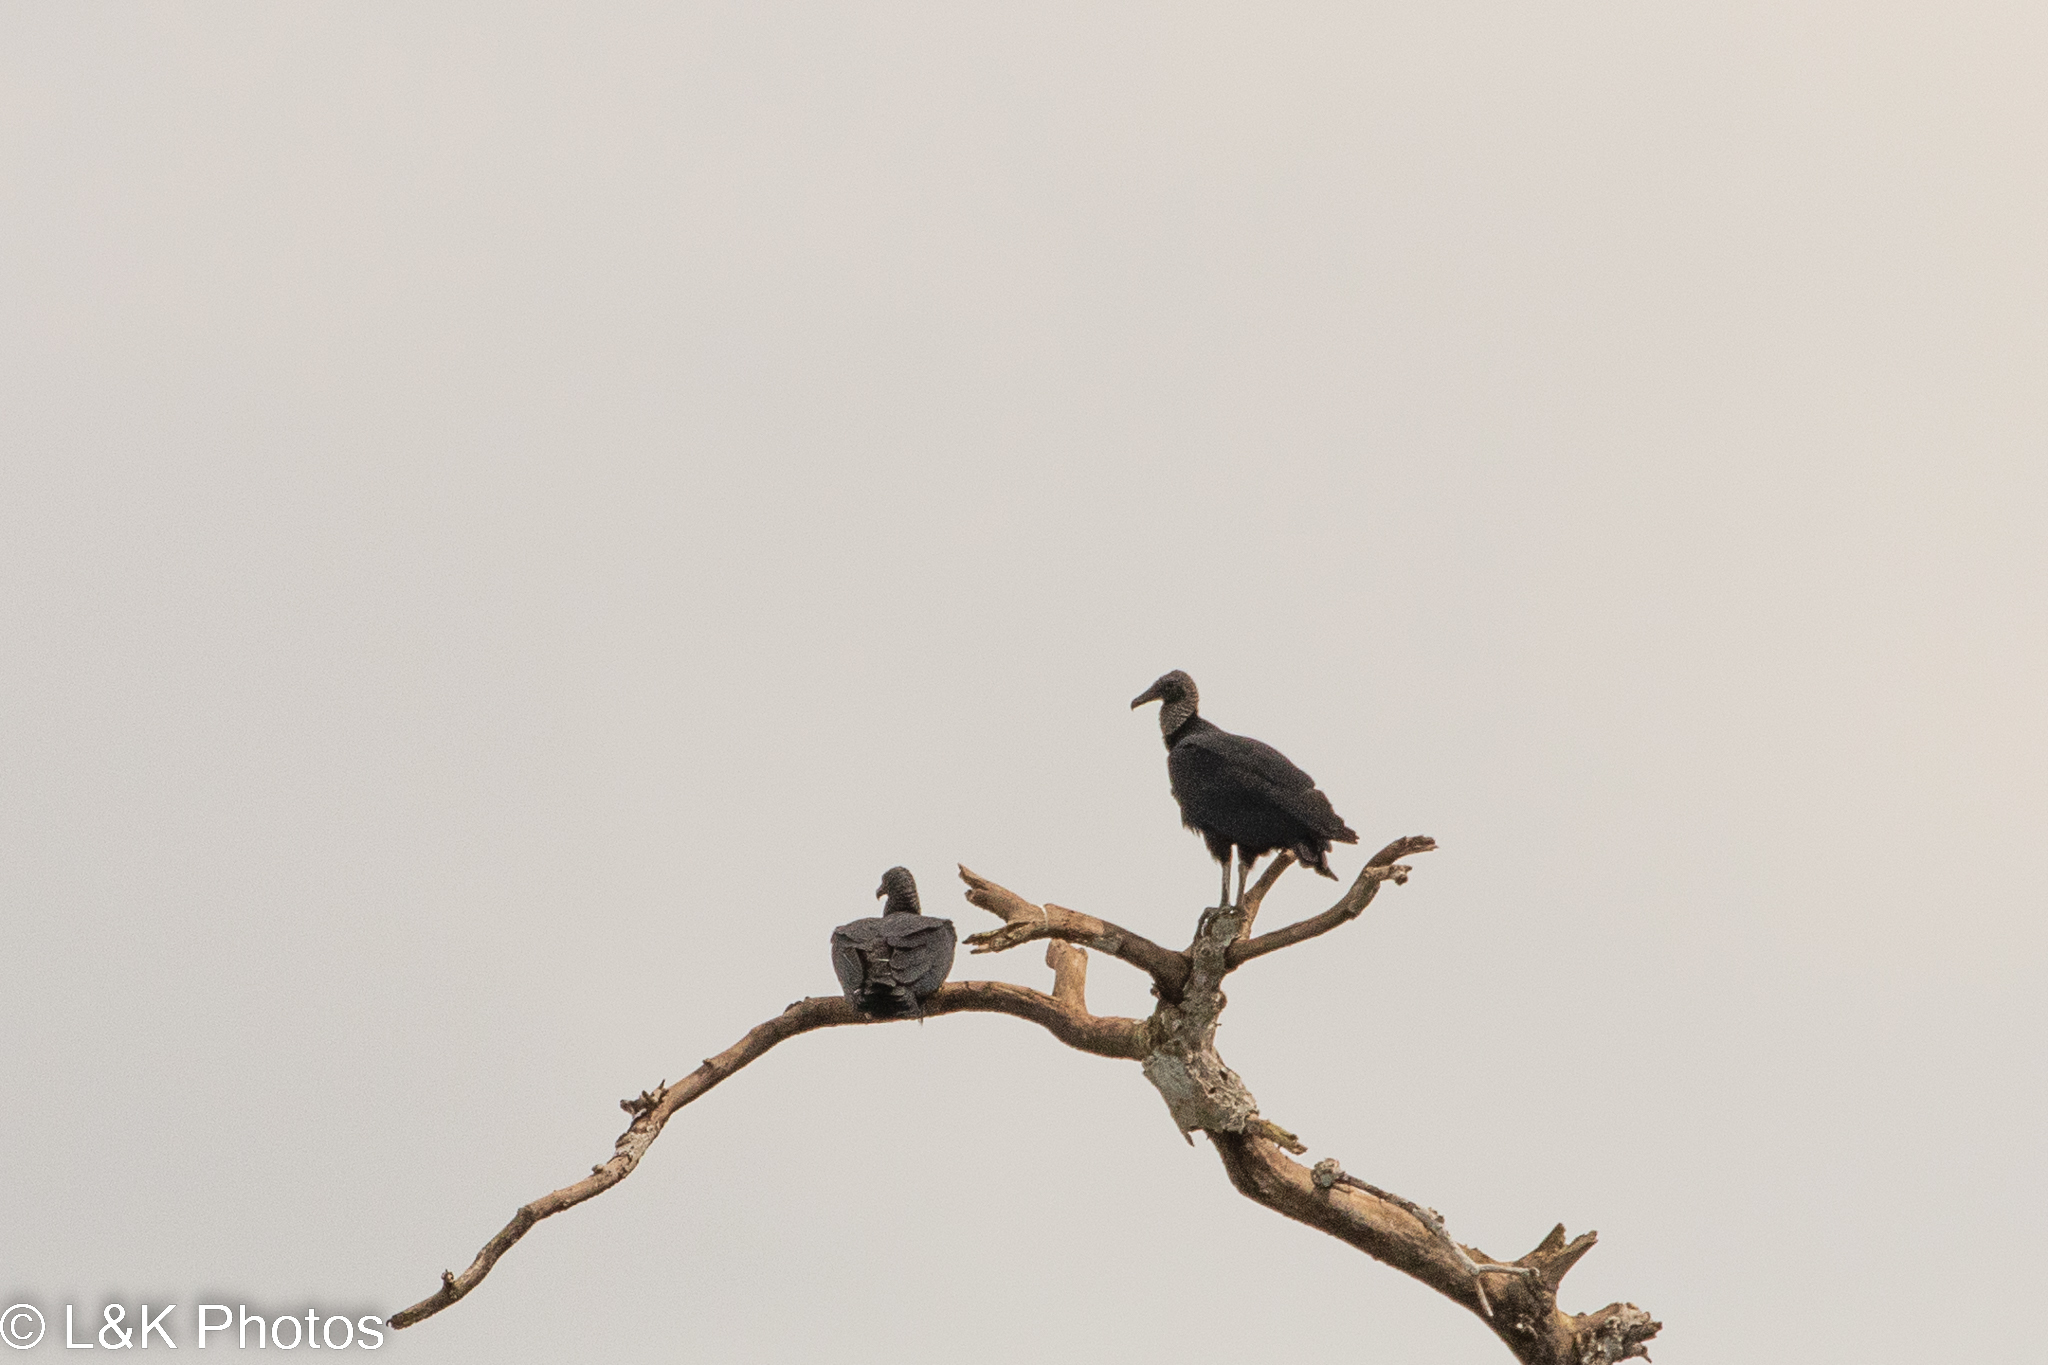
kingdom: Animalia
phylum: Chordata
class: Aves
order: Accipitriformes
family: Cathartidae
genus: Coragyps
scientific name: Coragyps atratus
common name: Black vulture
